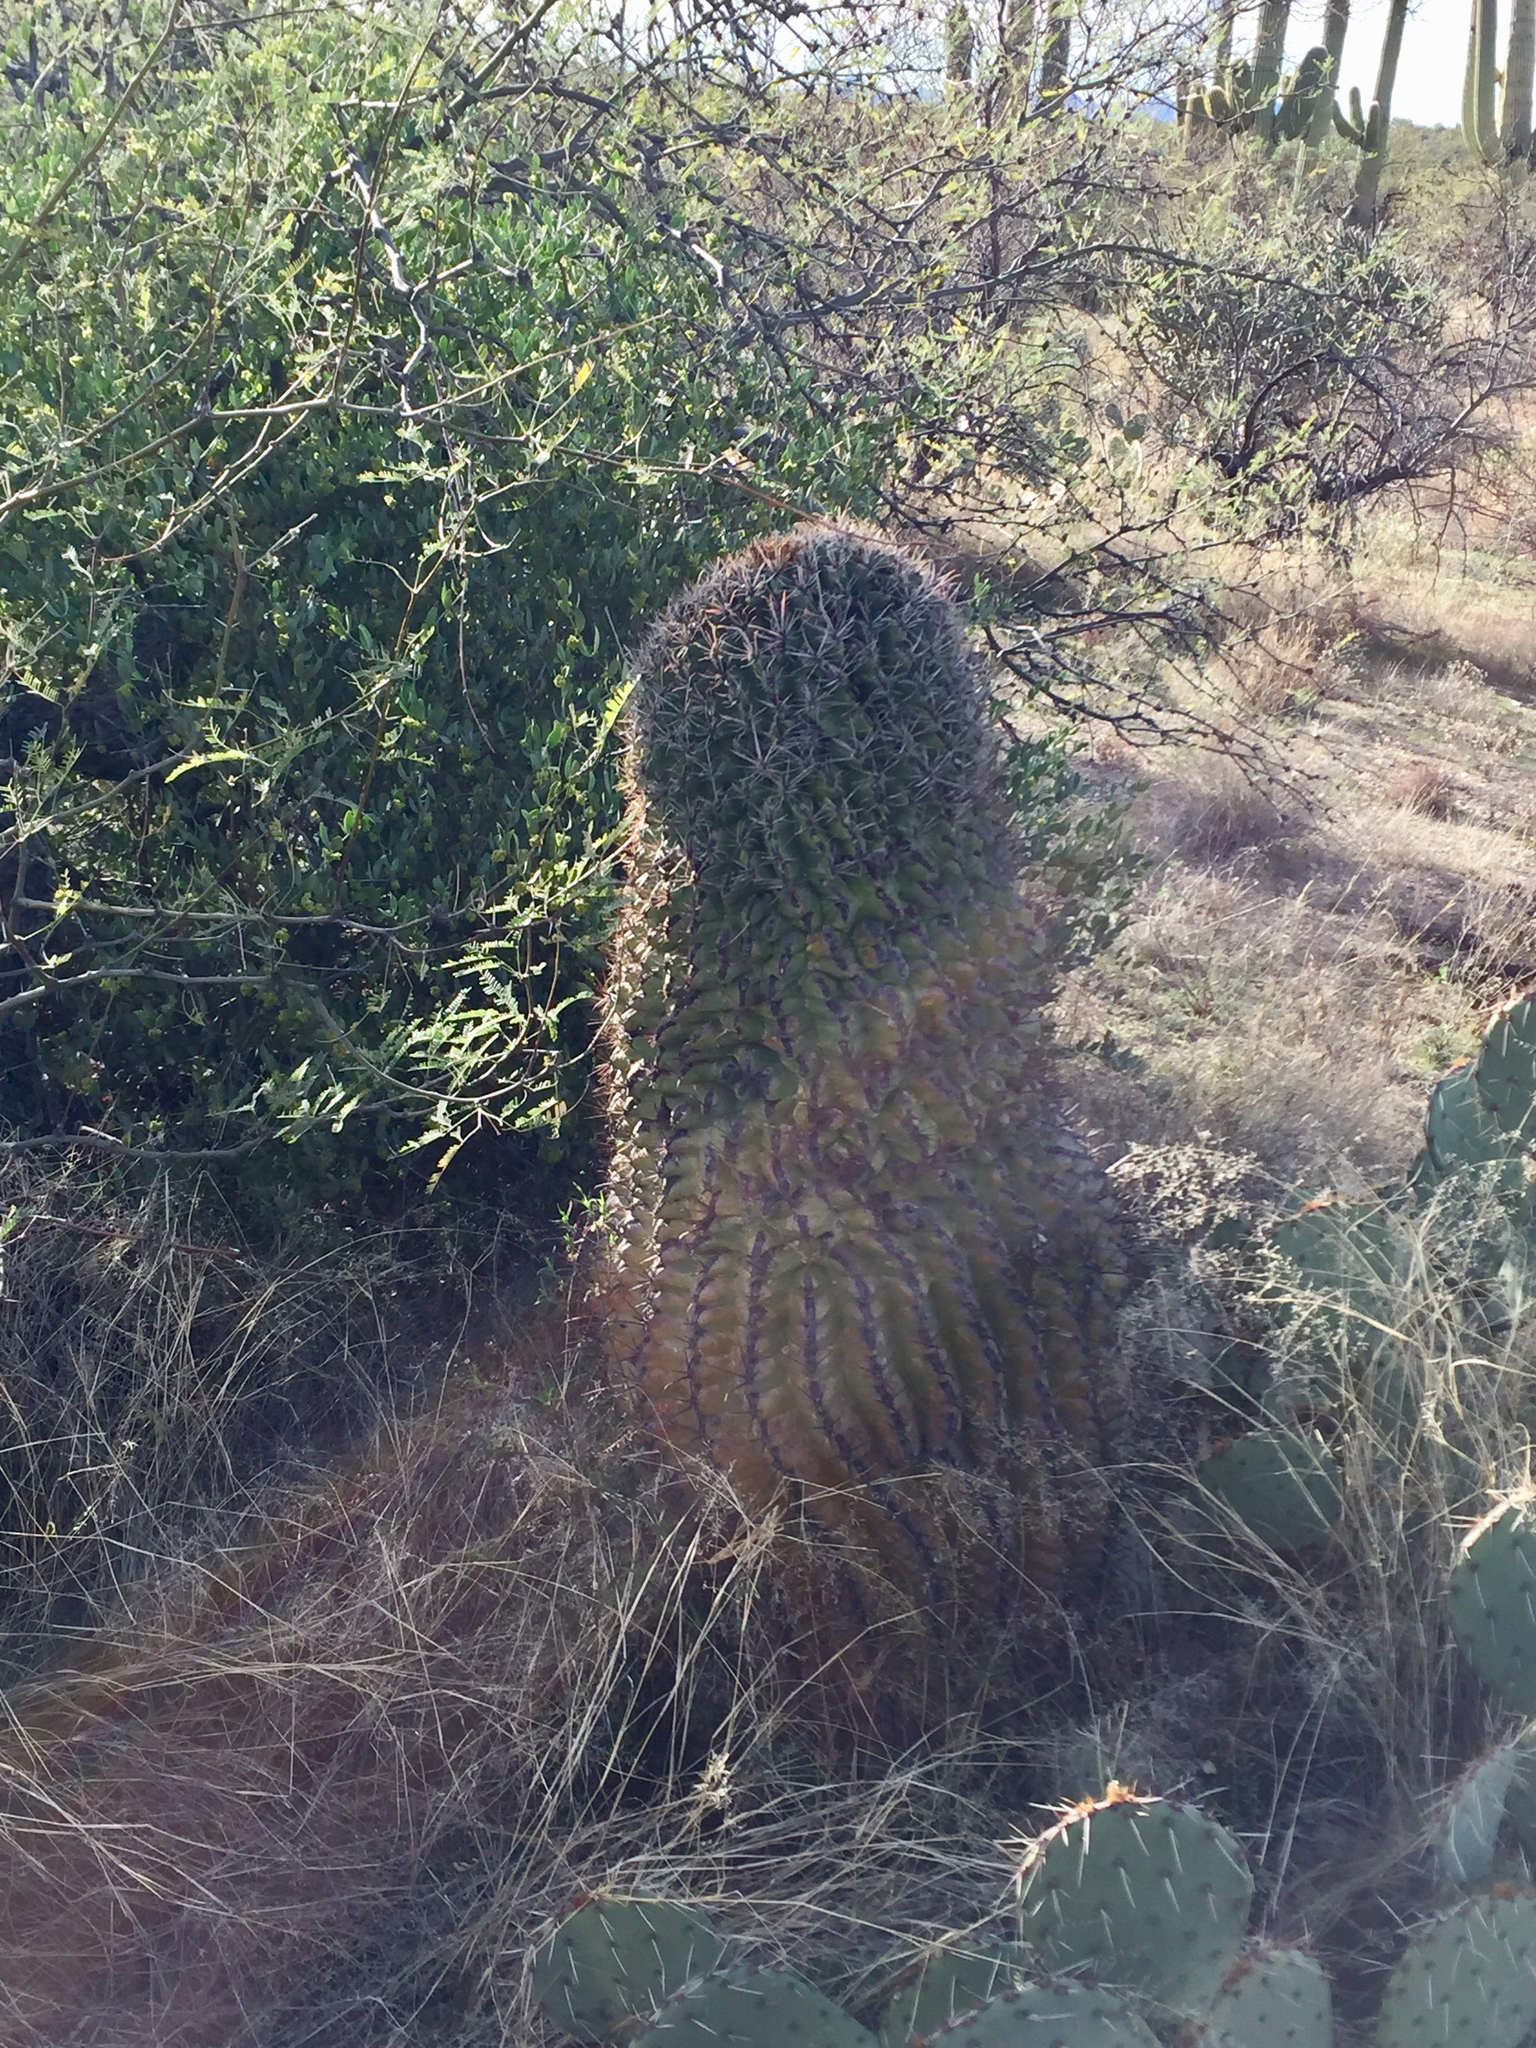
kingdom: Plantae
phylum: Tracheophyta
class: Magnoliopsida
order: Caryophyllales
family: Cactaceae
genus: Ferocactus
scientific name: Ferocactus wislizeni
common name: Candy barrel cactus
